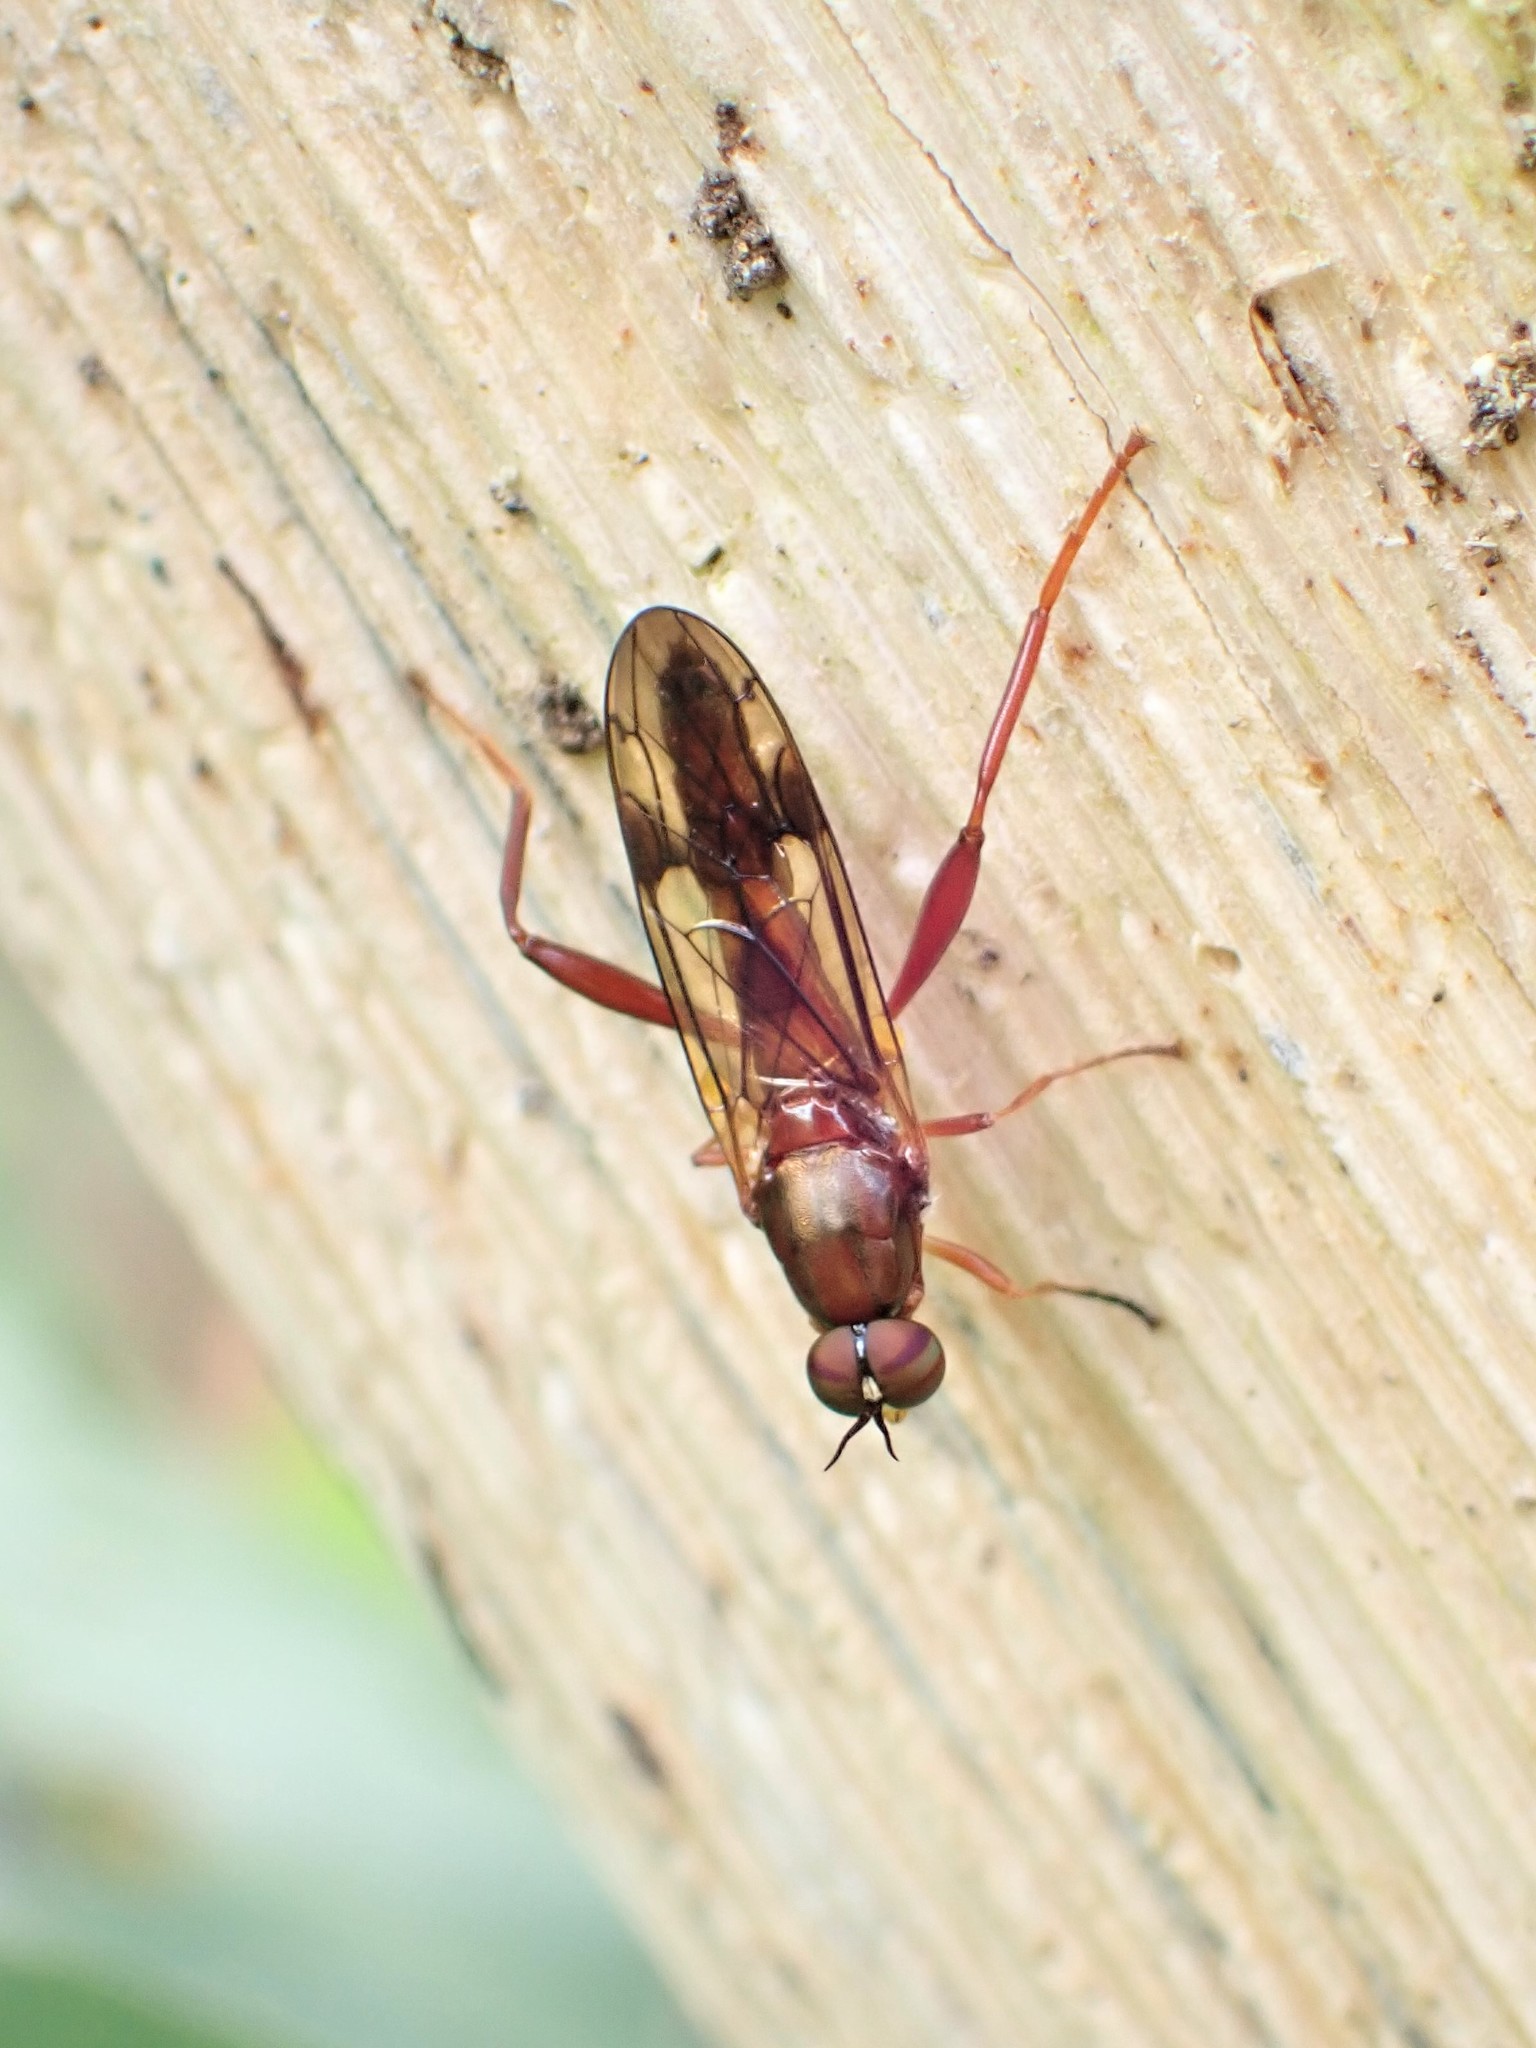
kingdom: Animalia
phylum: Arthropoda
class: Insecta
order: Diptera
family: Stratiomyidae
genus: Benhamyia
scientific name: Benhamyia straznitzkii
